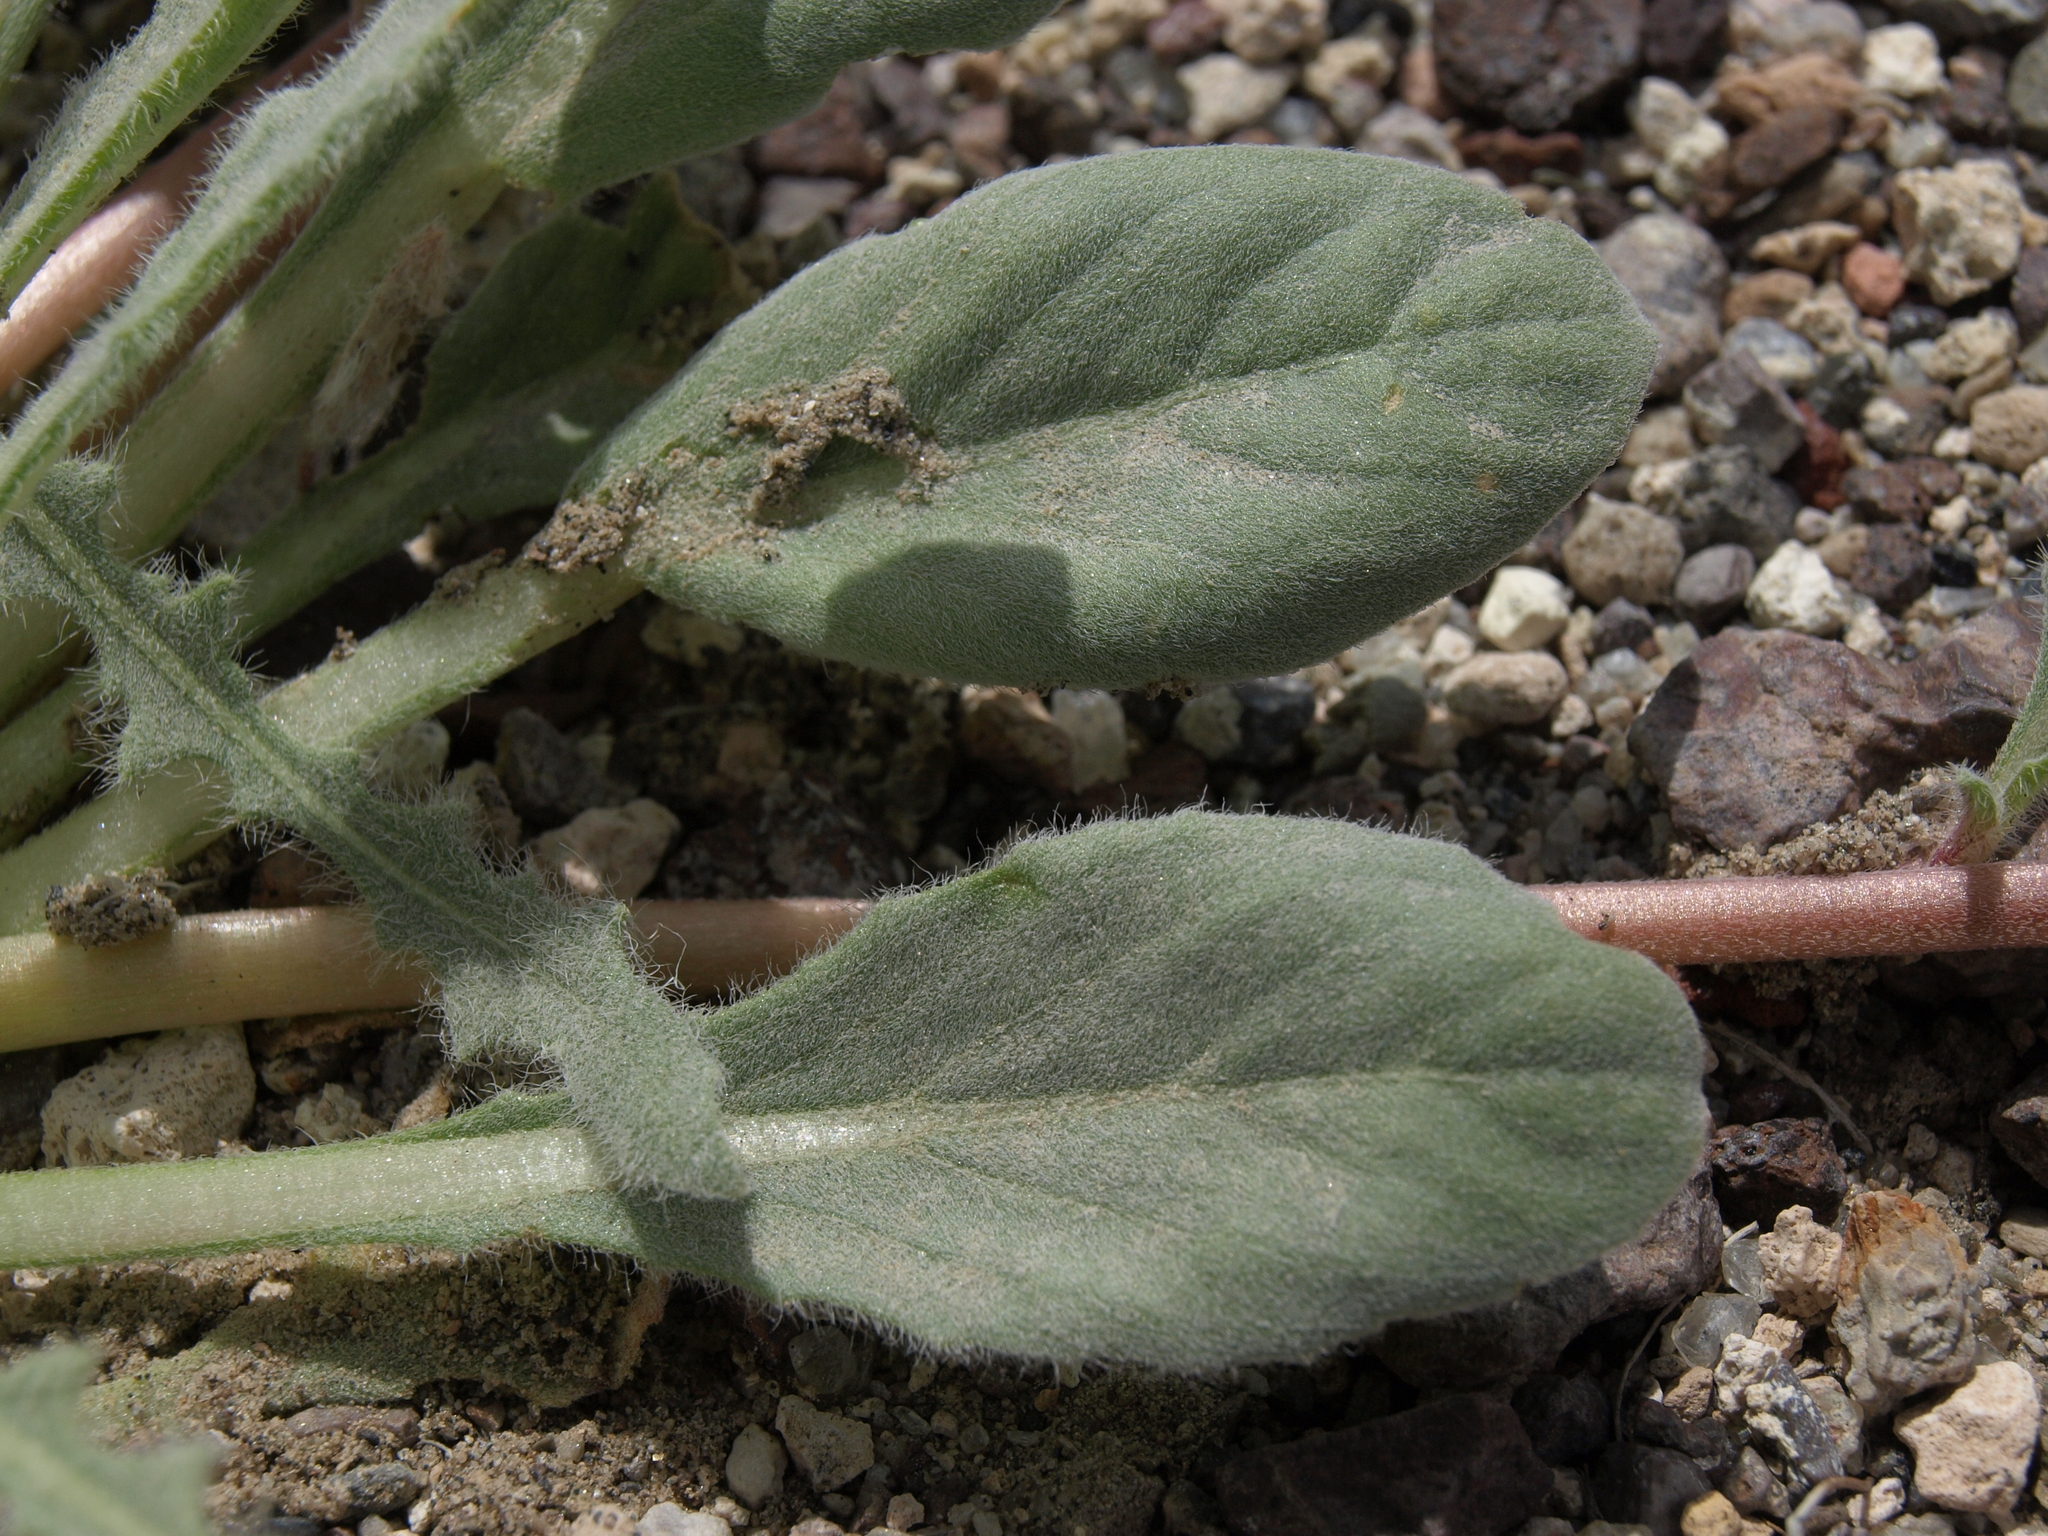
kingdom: Plantae
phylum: Tracheophyta
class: Magnoliopsida
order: Myrtales
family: Onagraceae
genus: Oenothera
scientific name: Oenothera deltoides
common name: Basket evening-primrose
